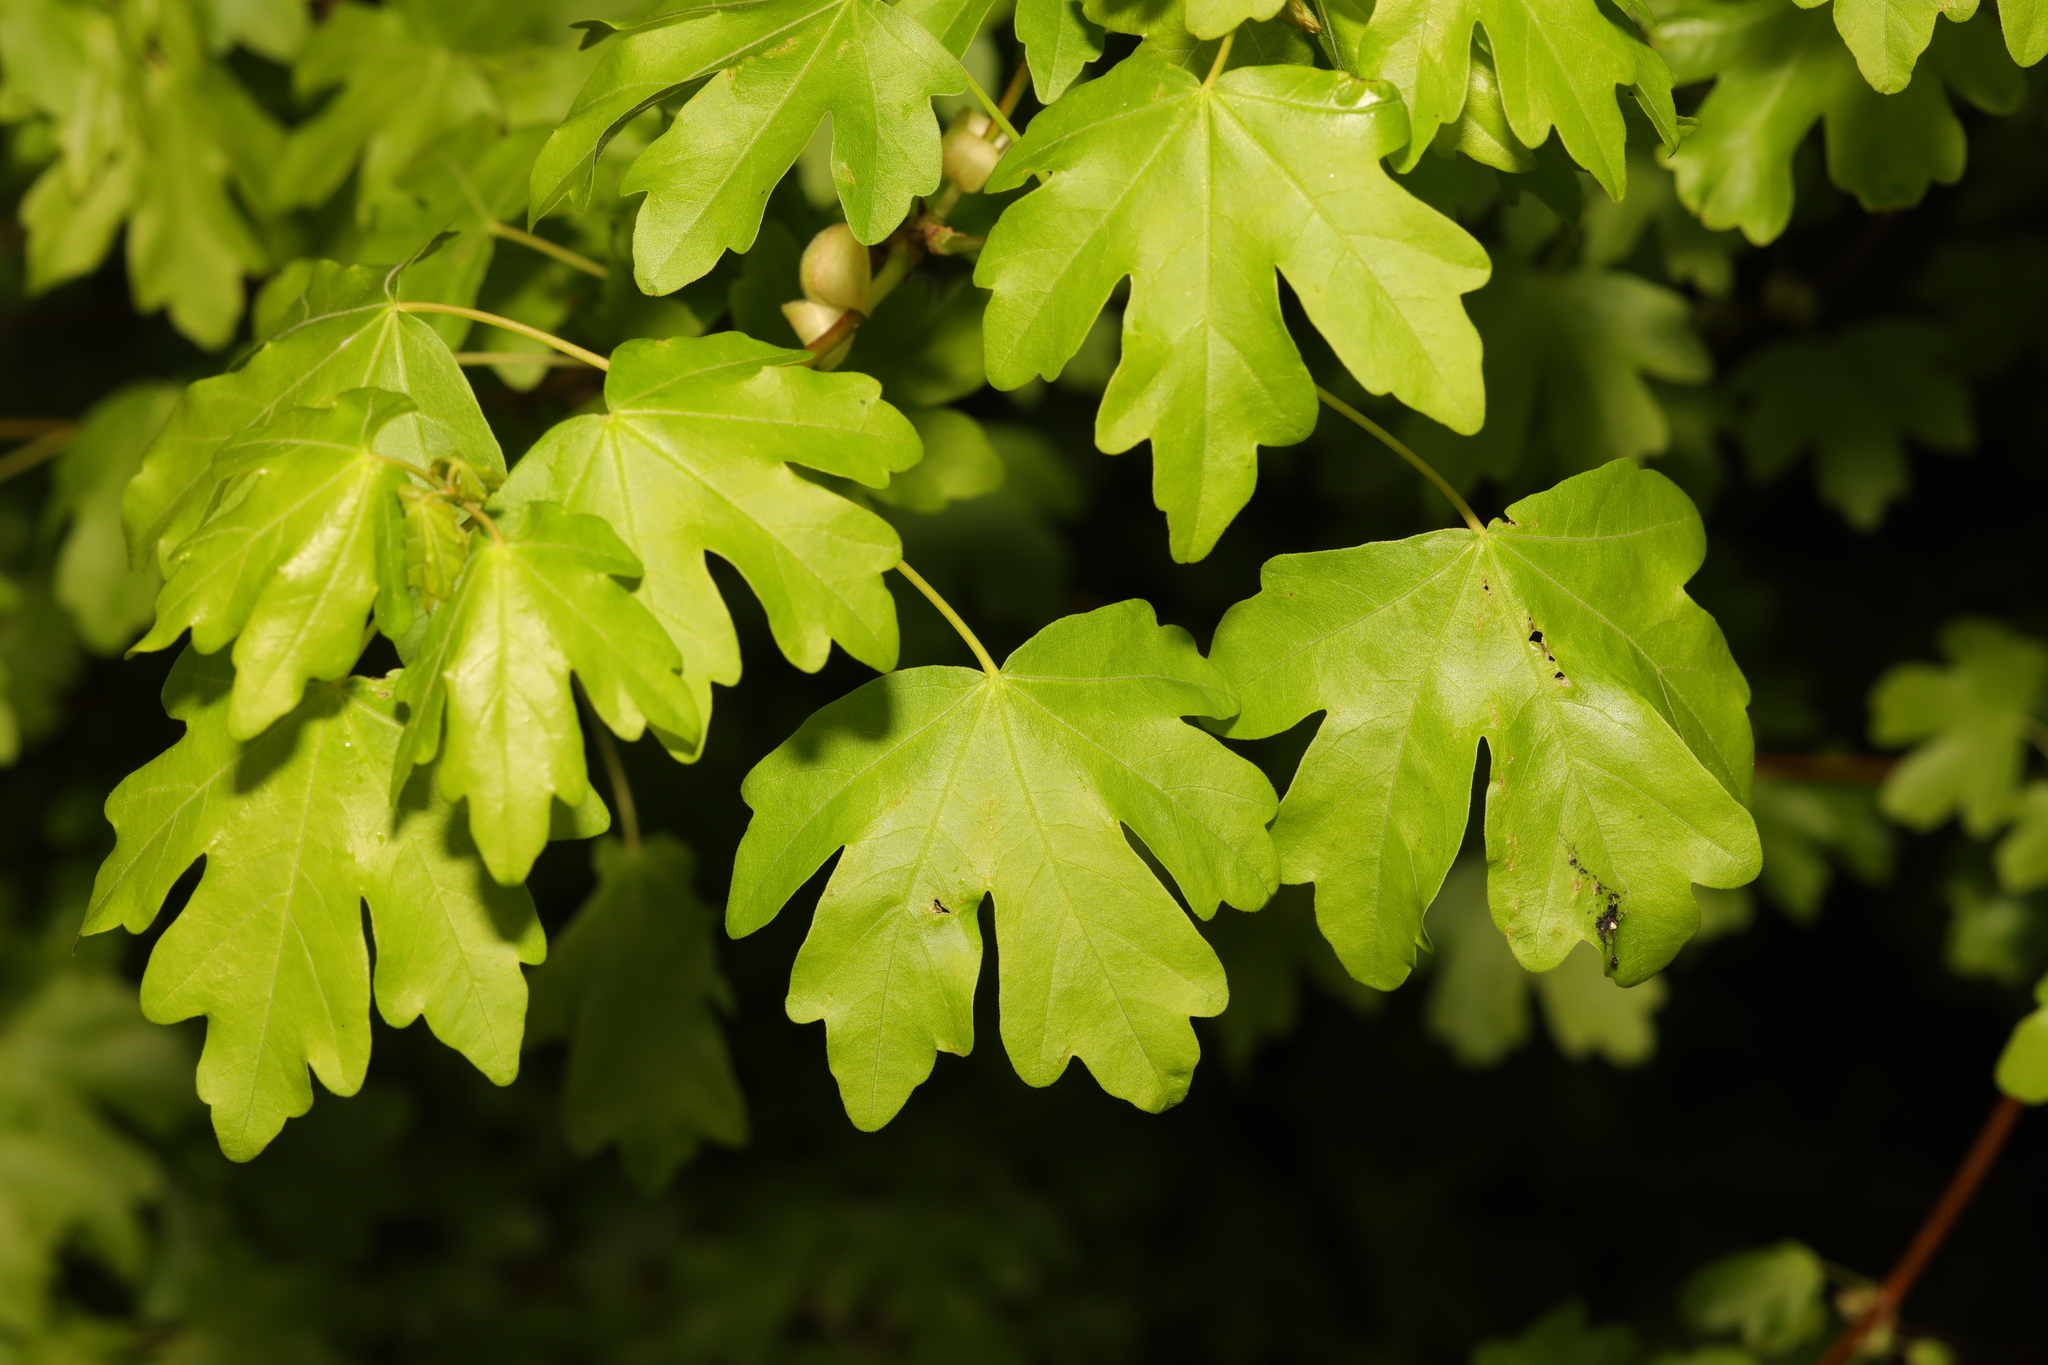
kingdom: Plantae
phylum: Tracheophyta
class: Magnoliopsida
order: Sapindales
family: Sapindaceae
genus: Acer
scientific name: Acer campestre
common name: Field maple
